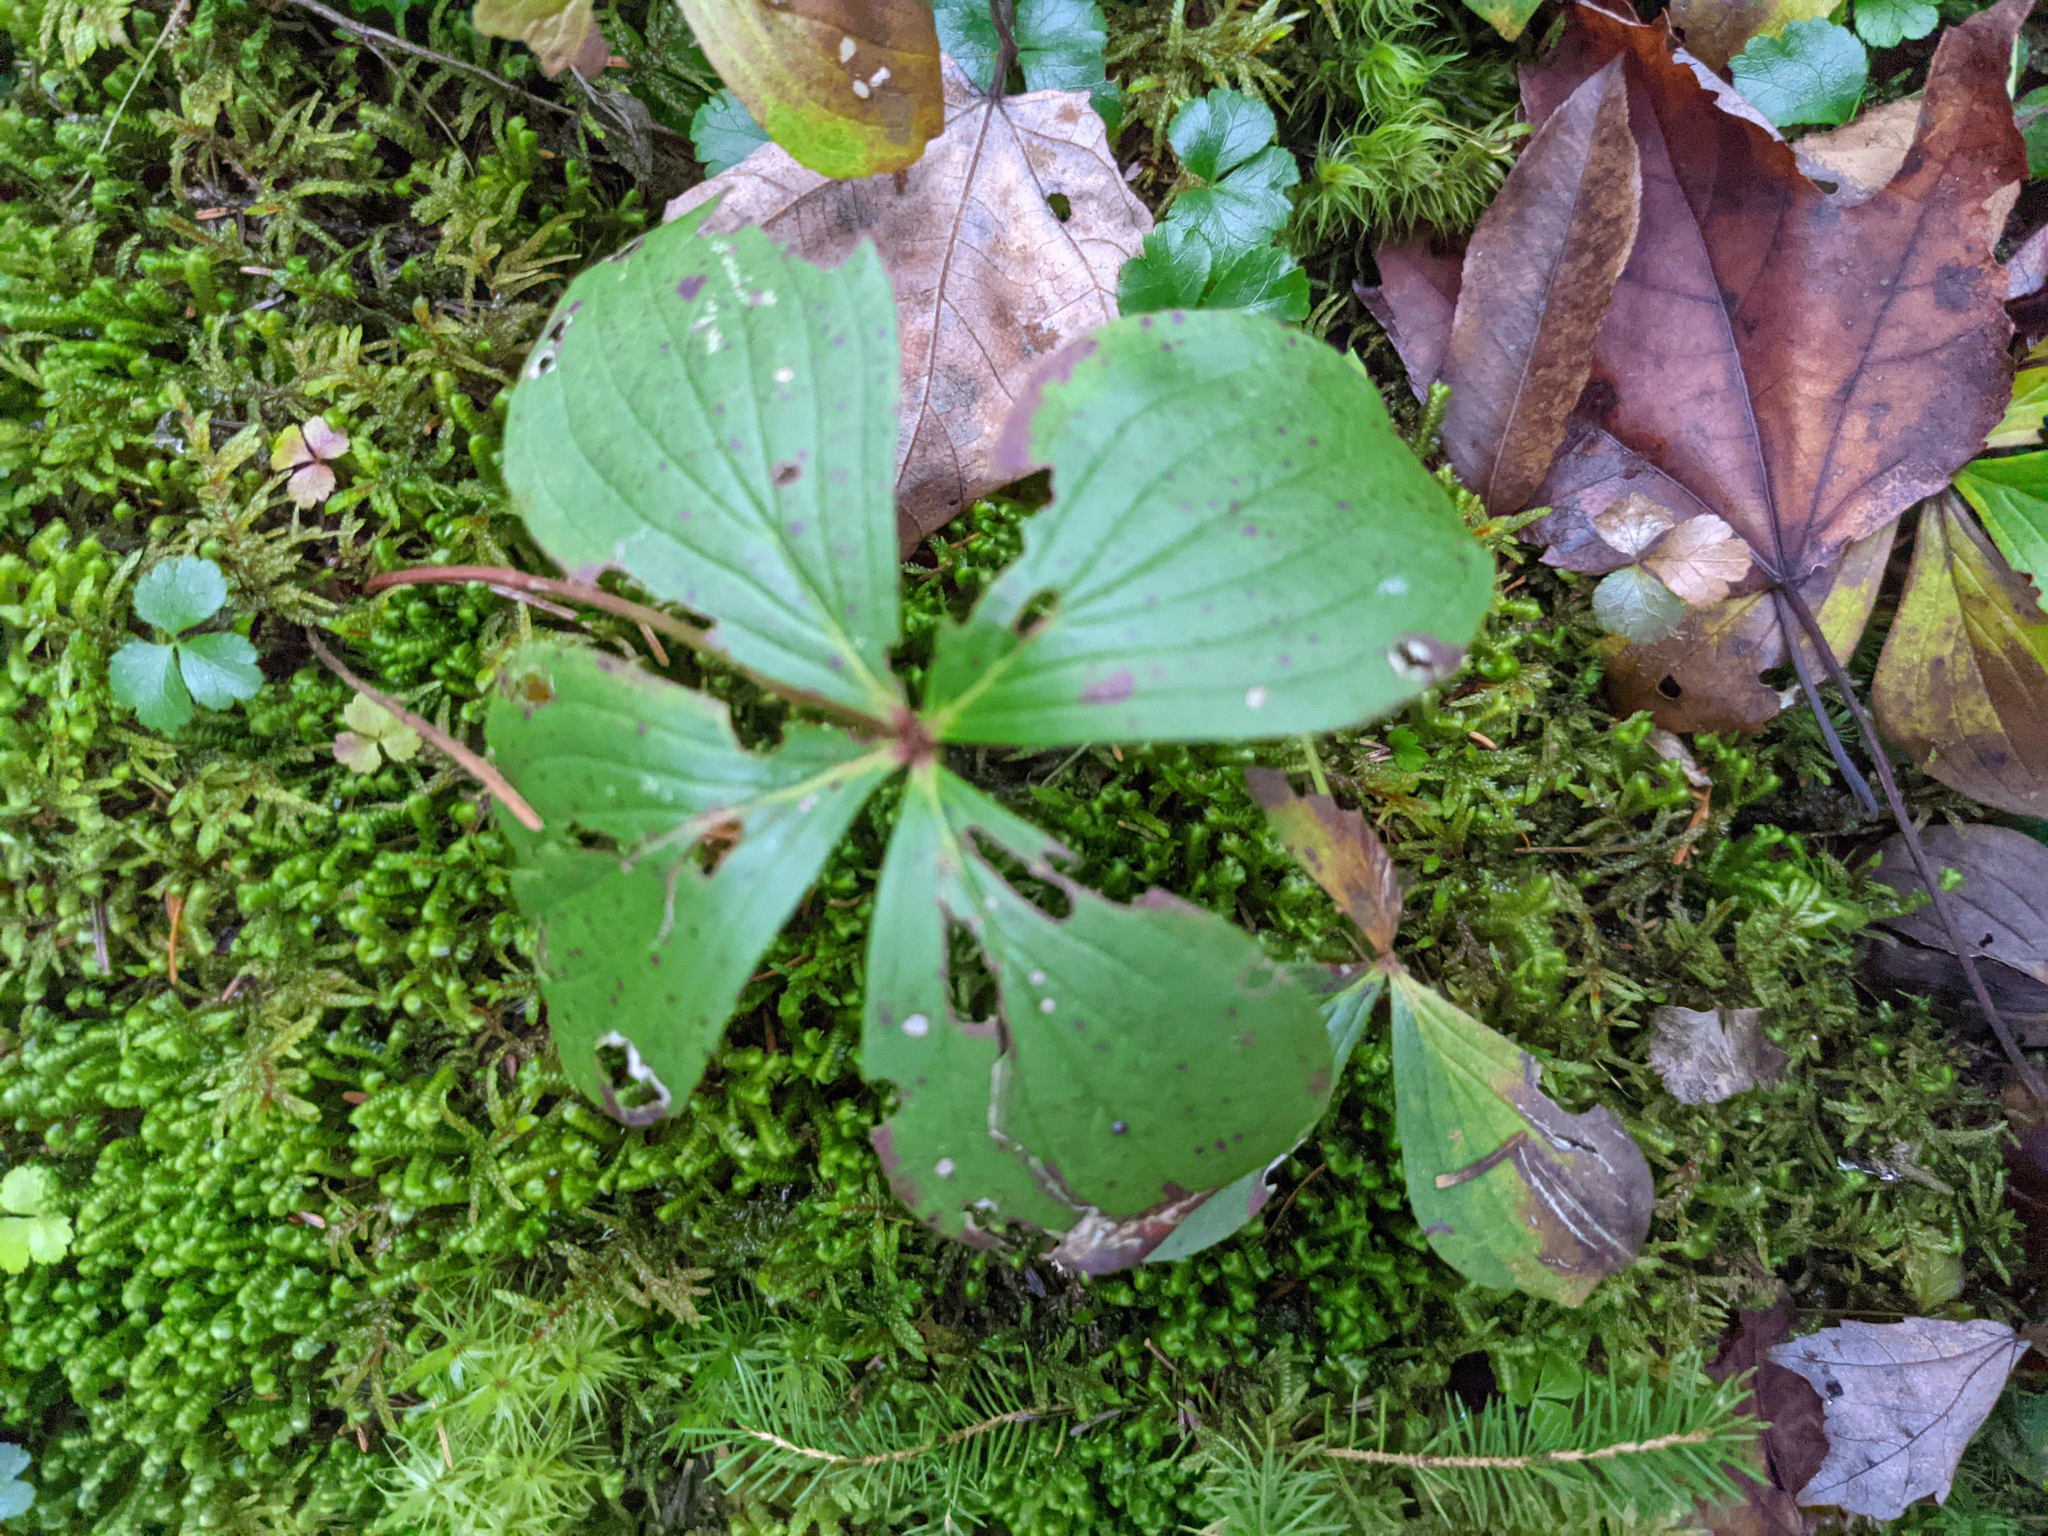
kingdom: Plantae
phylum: Tracheophyta
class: Magnoliopsida
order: Cornales
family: Cornaceae
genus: Cornus
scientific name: Cornus canadensis
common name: Creeping dogwood
